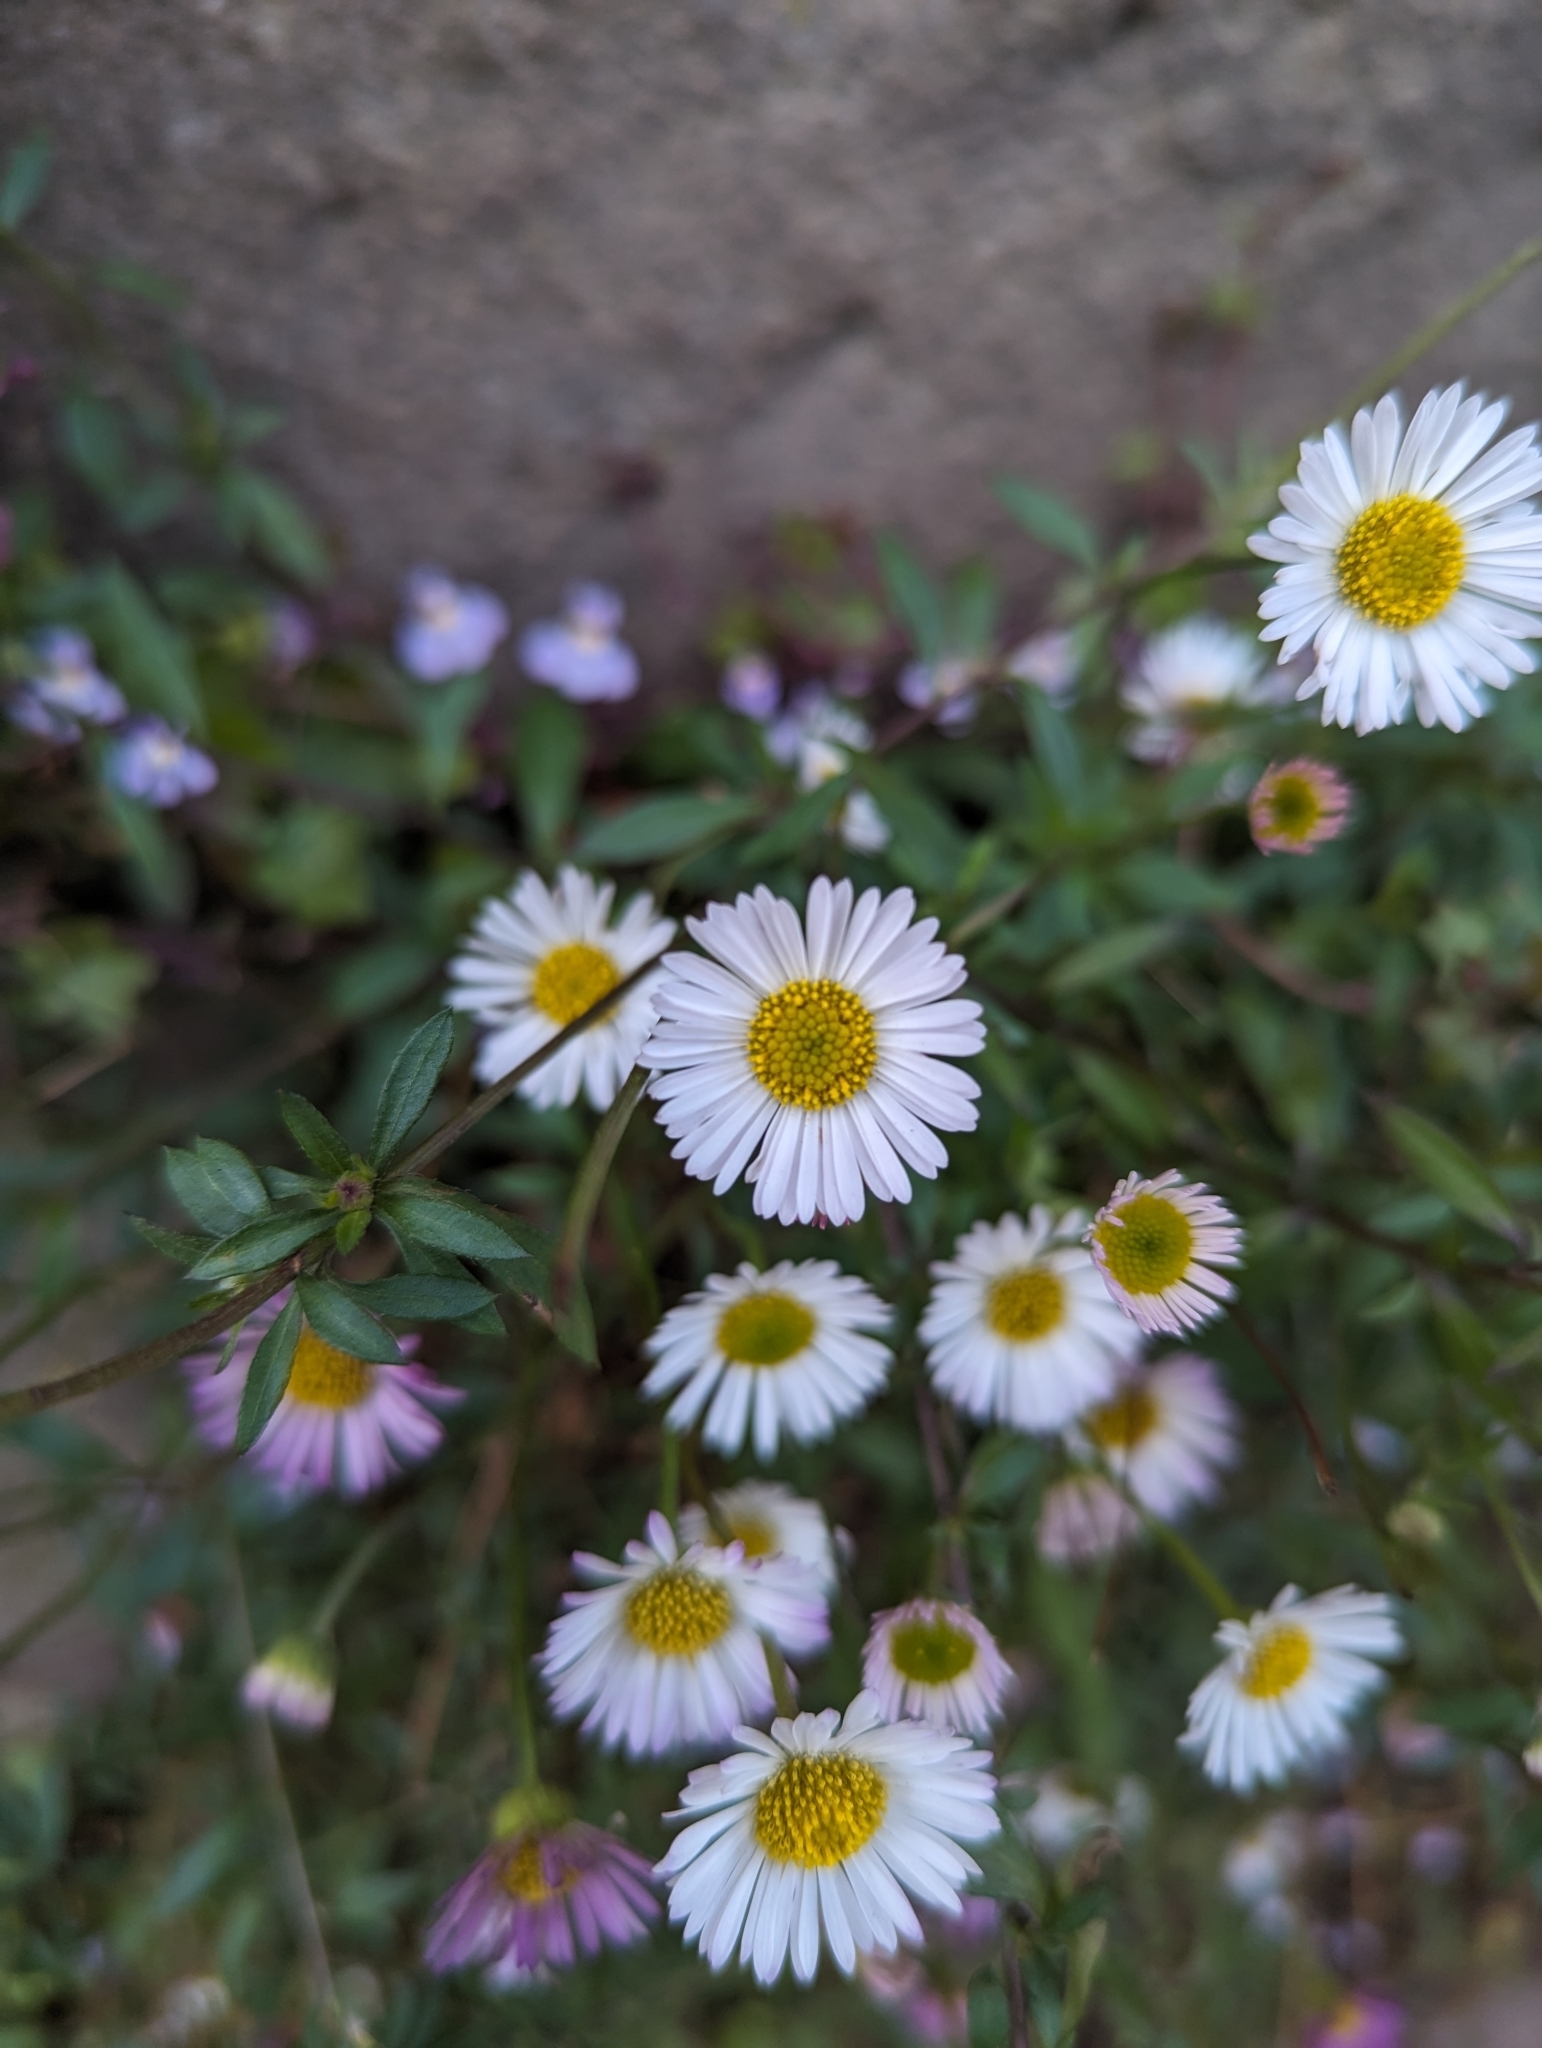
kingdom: Plantae
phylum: Tracheophyta
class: Magnoliopsida
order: Asterales
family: Asteraceae
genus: Erigeron
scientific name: Erigeron karvinskianus
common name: Mexican fleabane
